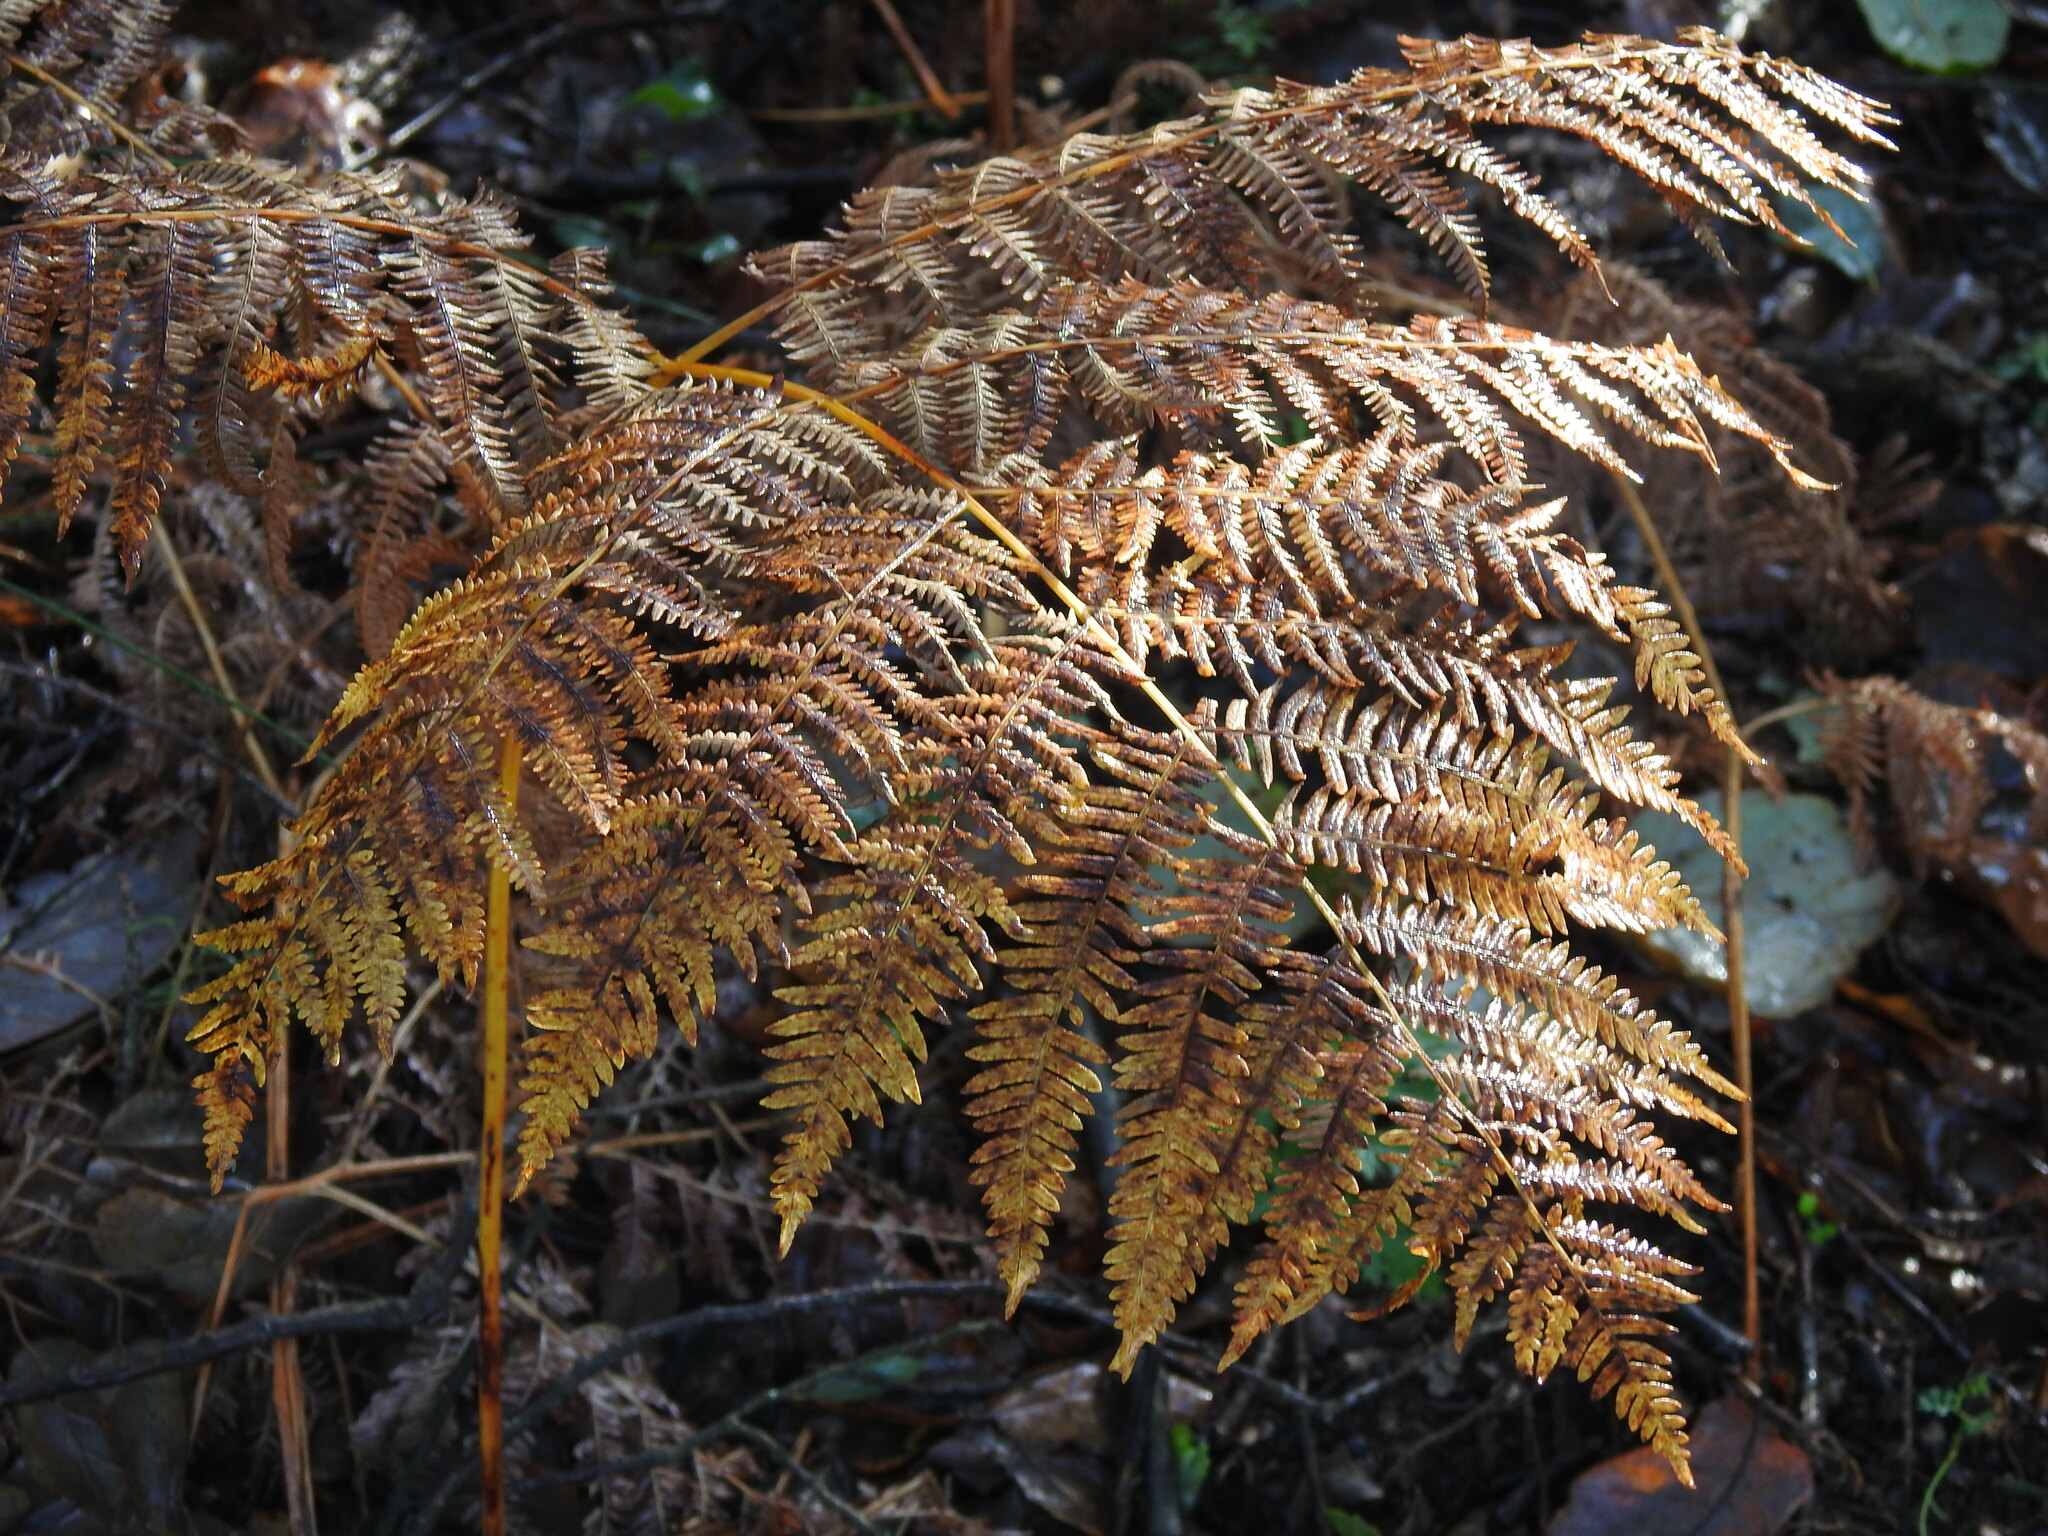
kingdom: Plantae
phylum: Tracheophyta
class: Polypodiopsida
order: Polypodiales
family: Dennstaedtiaceae
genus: Pteridium
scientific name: Pteridium aquilinum
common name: Bracken
